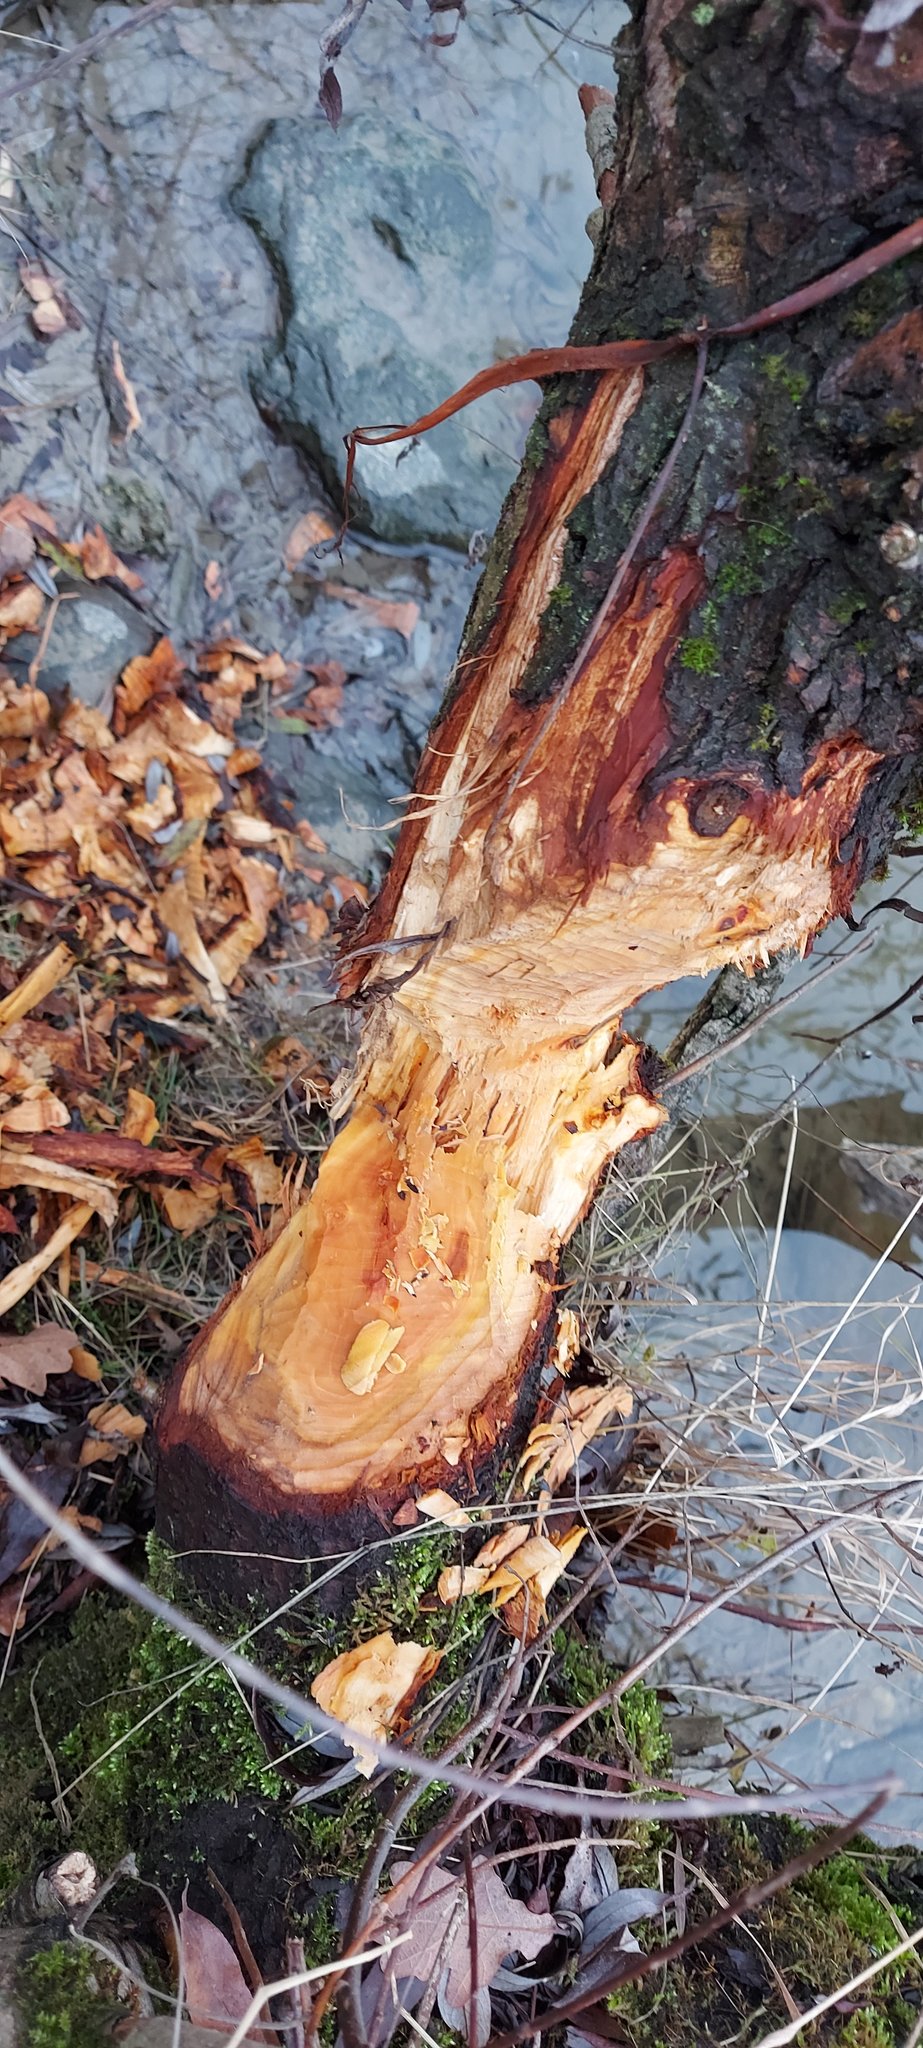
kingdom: Animalia
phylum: Chordata
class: Mammalia
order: Rodentia
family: Castoridae
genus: Castor
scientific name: Castor fiber
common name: Eurasian beaver
